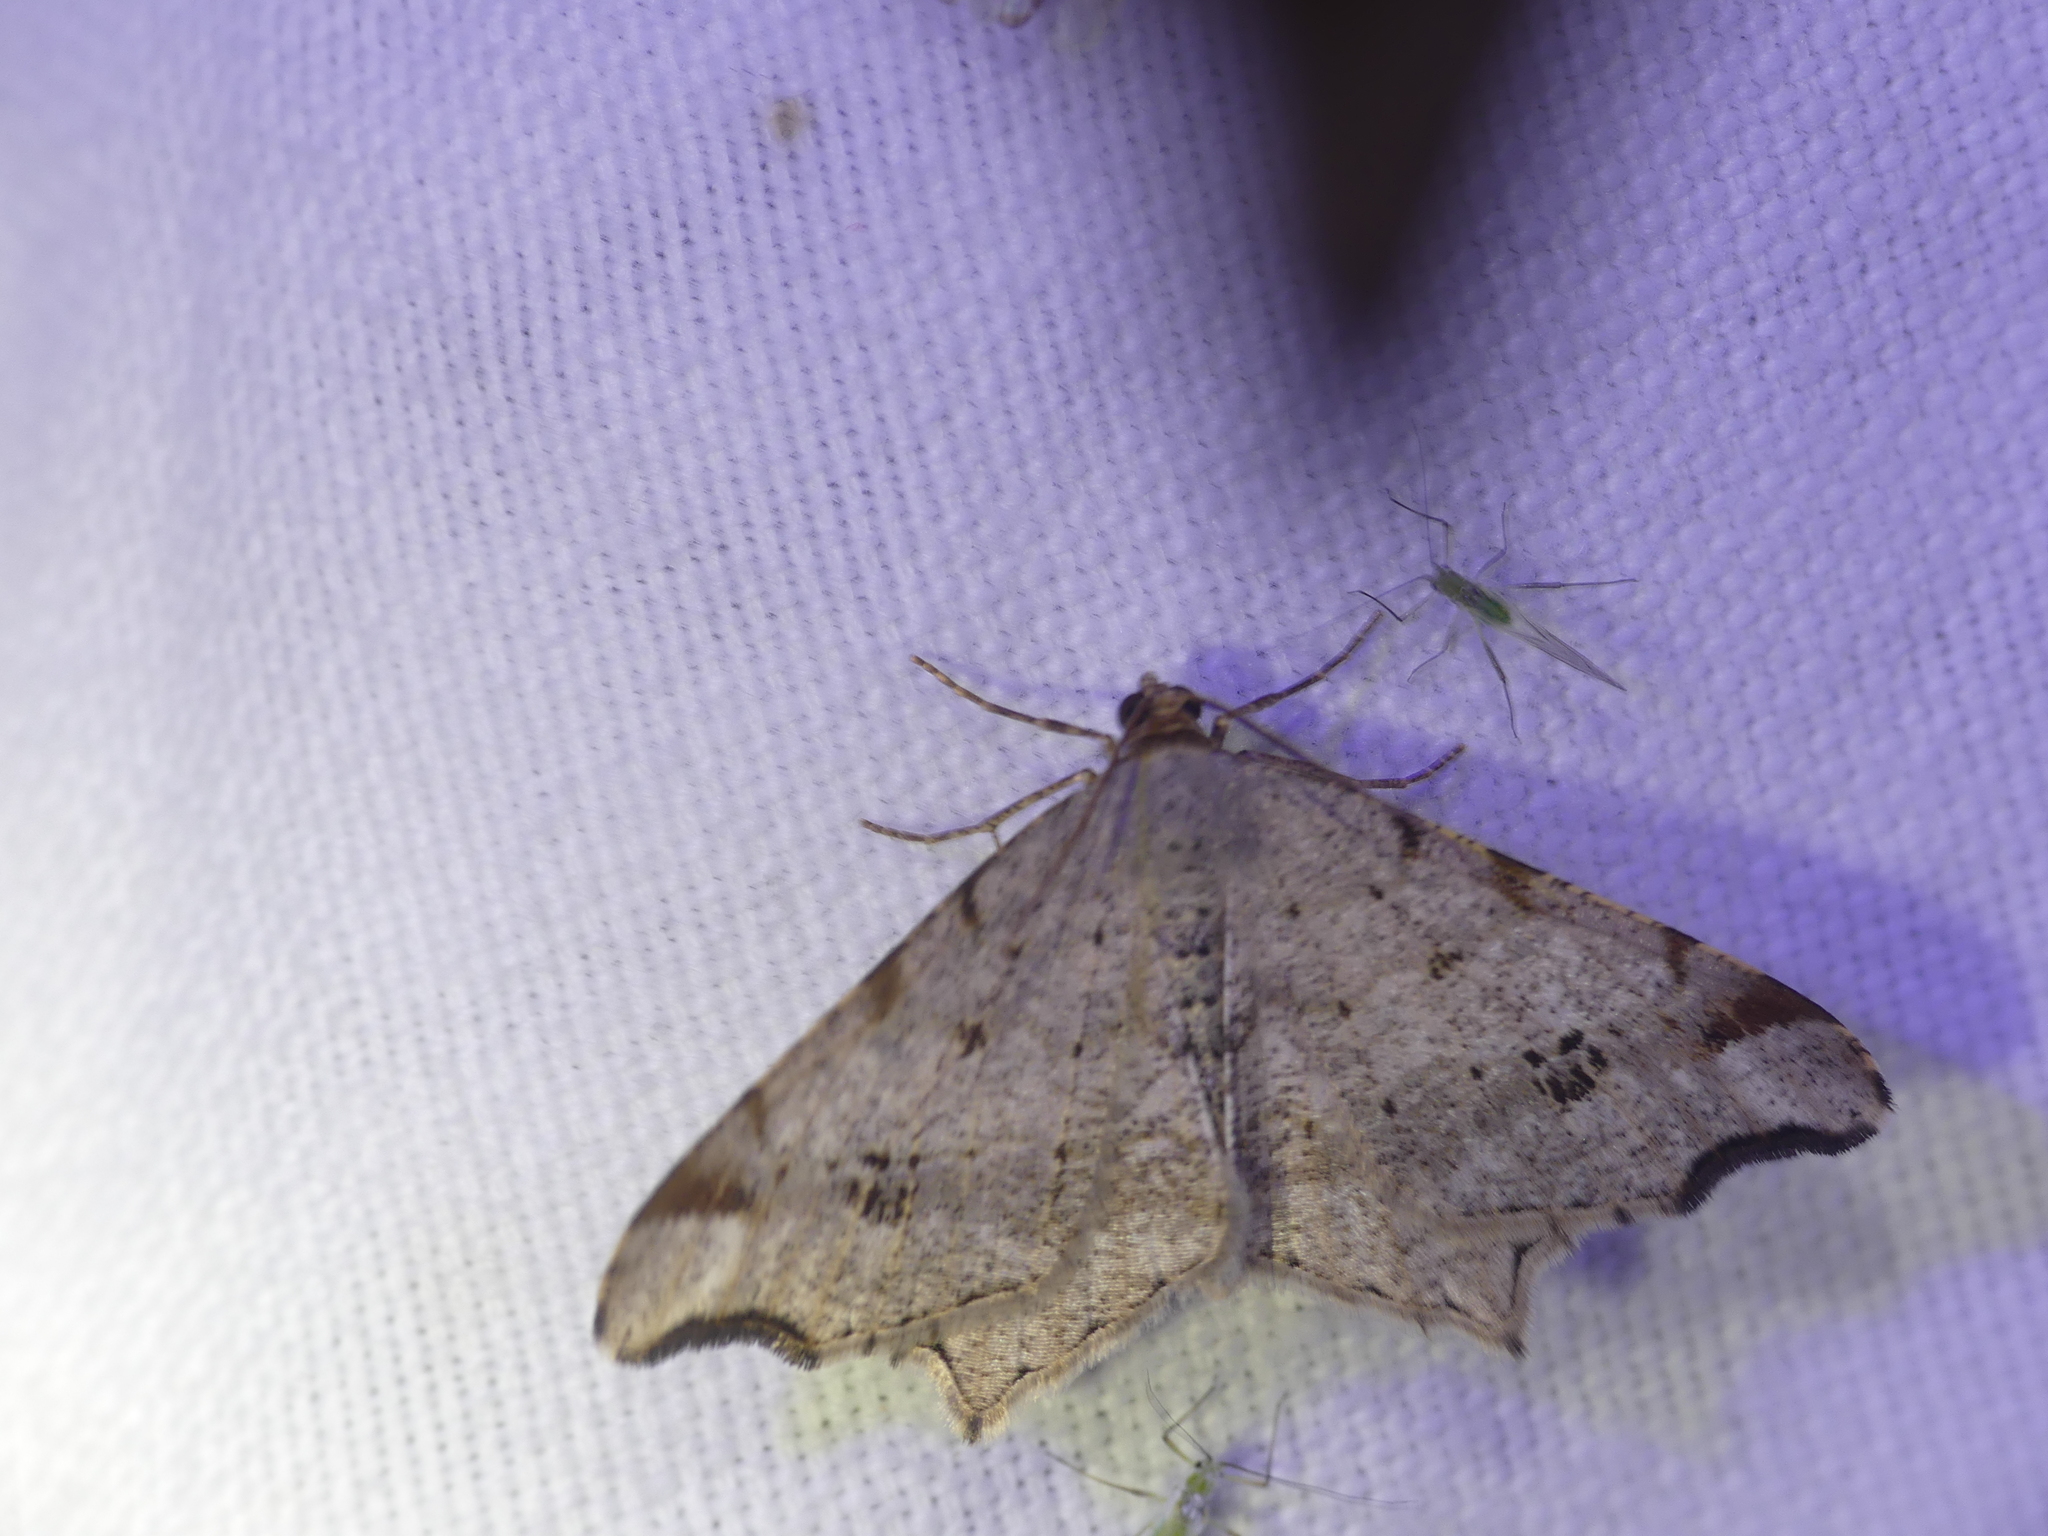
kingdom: Animalia
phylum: Arthropoda
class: Insecta
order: Lepidoptera
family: Geometridae
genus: Macaria
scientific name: Macaria alternata
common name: Sharp-angled peacock
